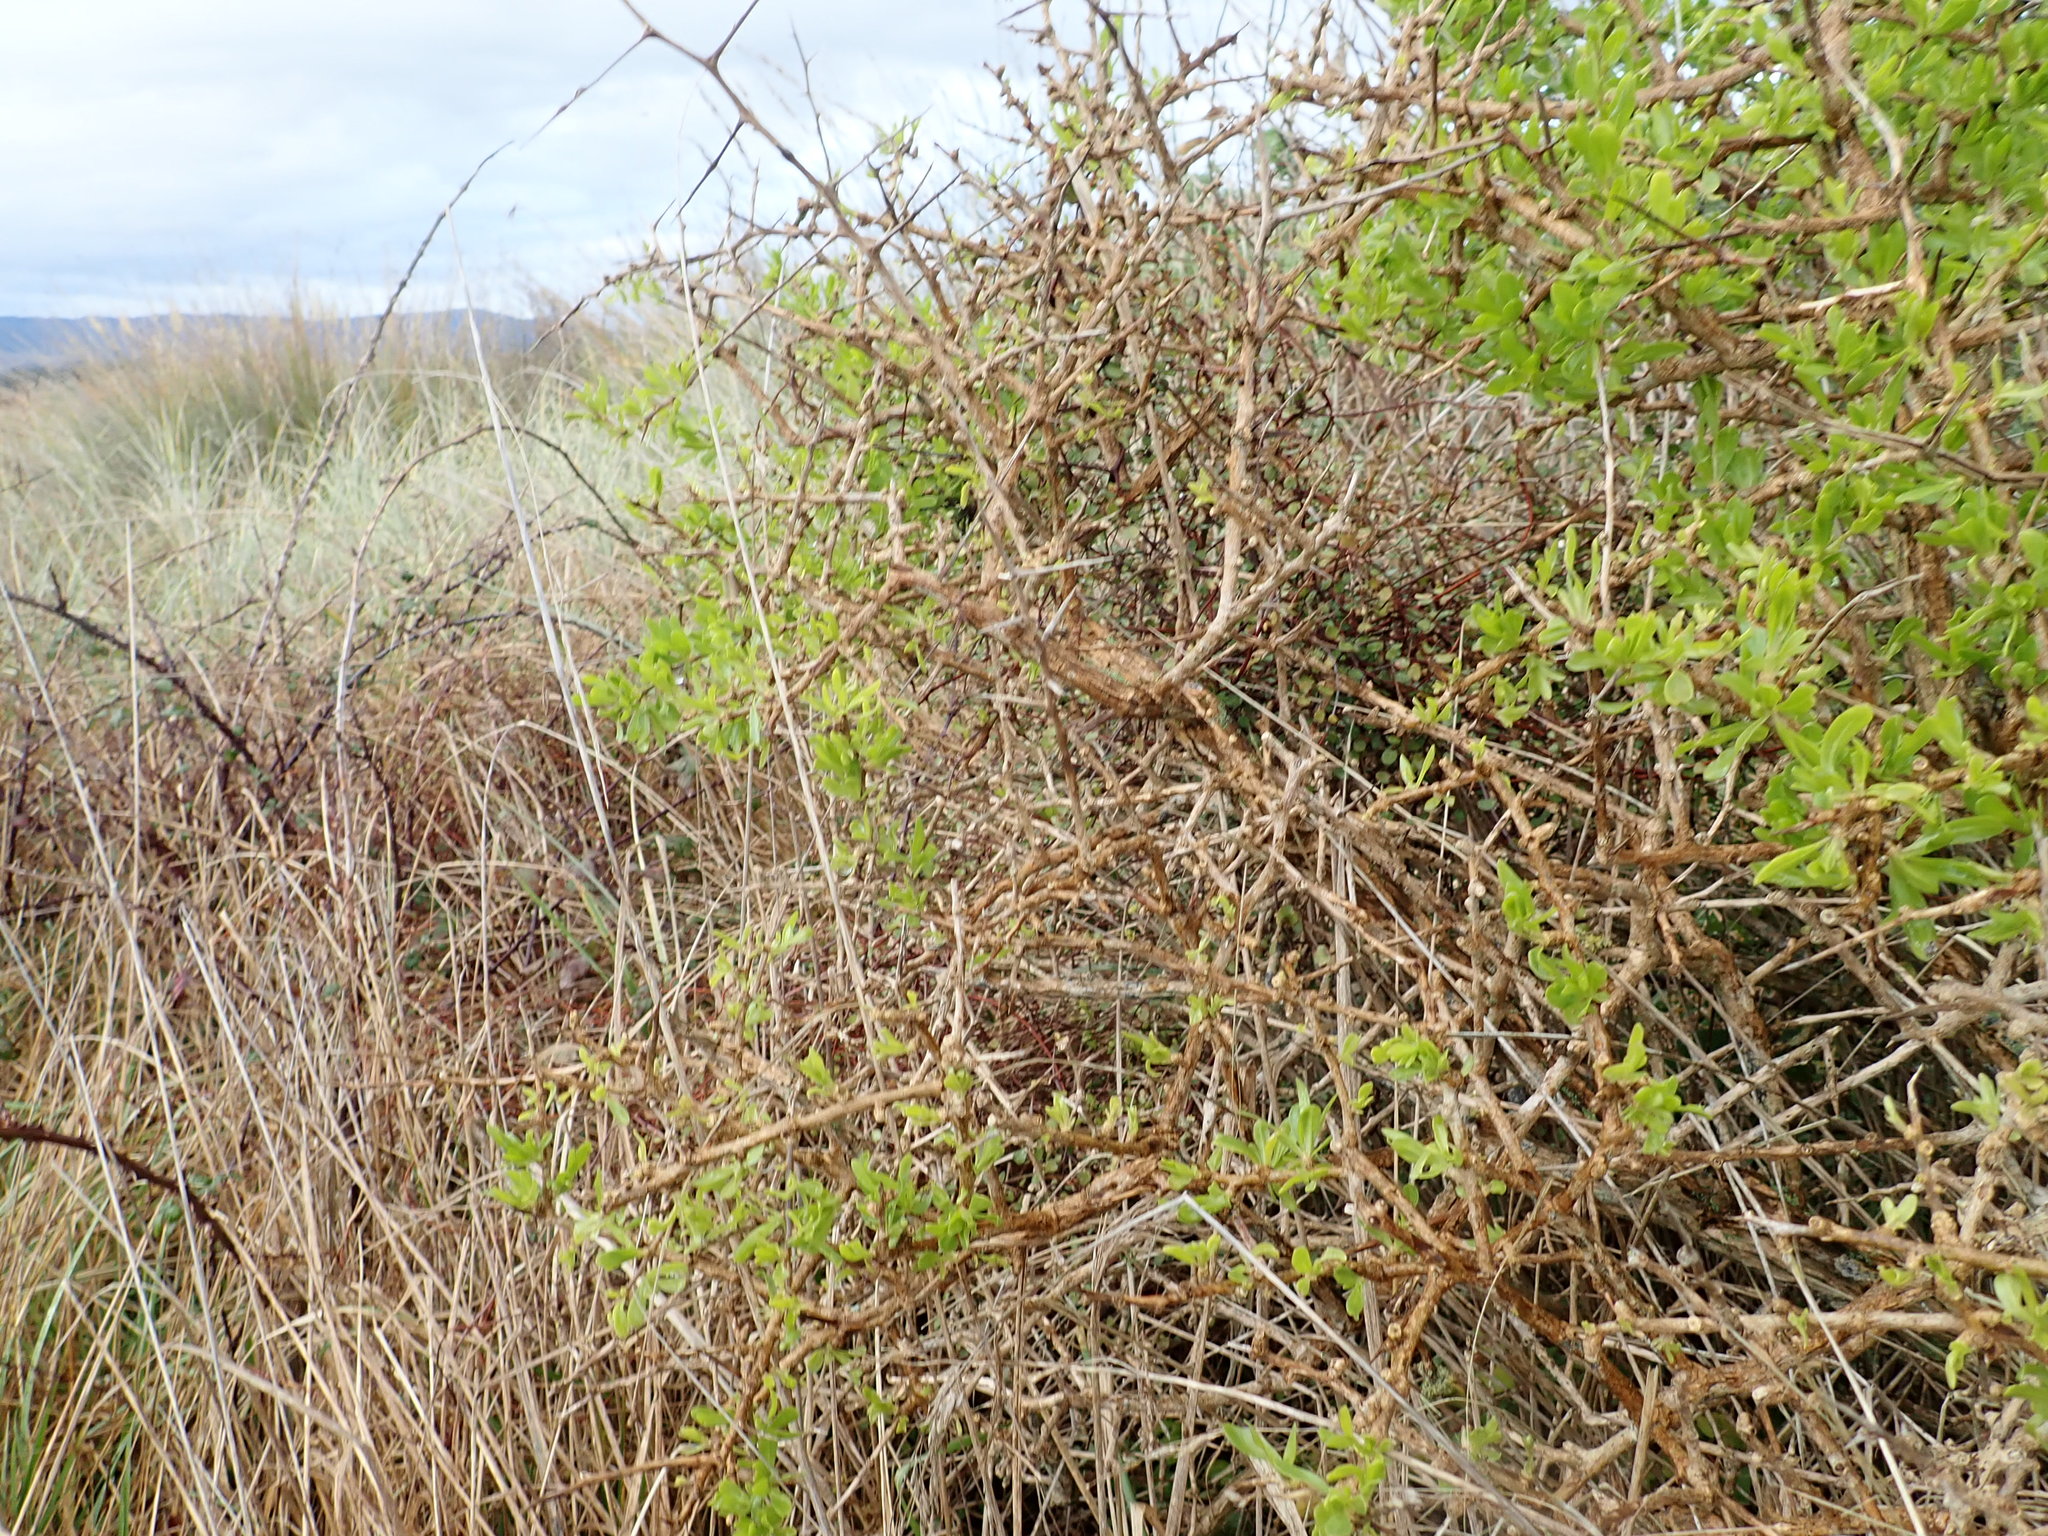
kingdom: Plantae
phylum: Tracheophyta
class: Magnoliopsida
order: Caryophyllales
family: Polygonaceae
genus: Muehlenbeckia
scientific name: Muehlenbeckia complexa
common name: Wireplant
